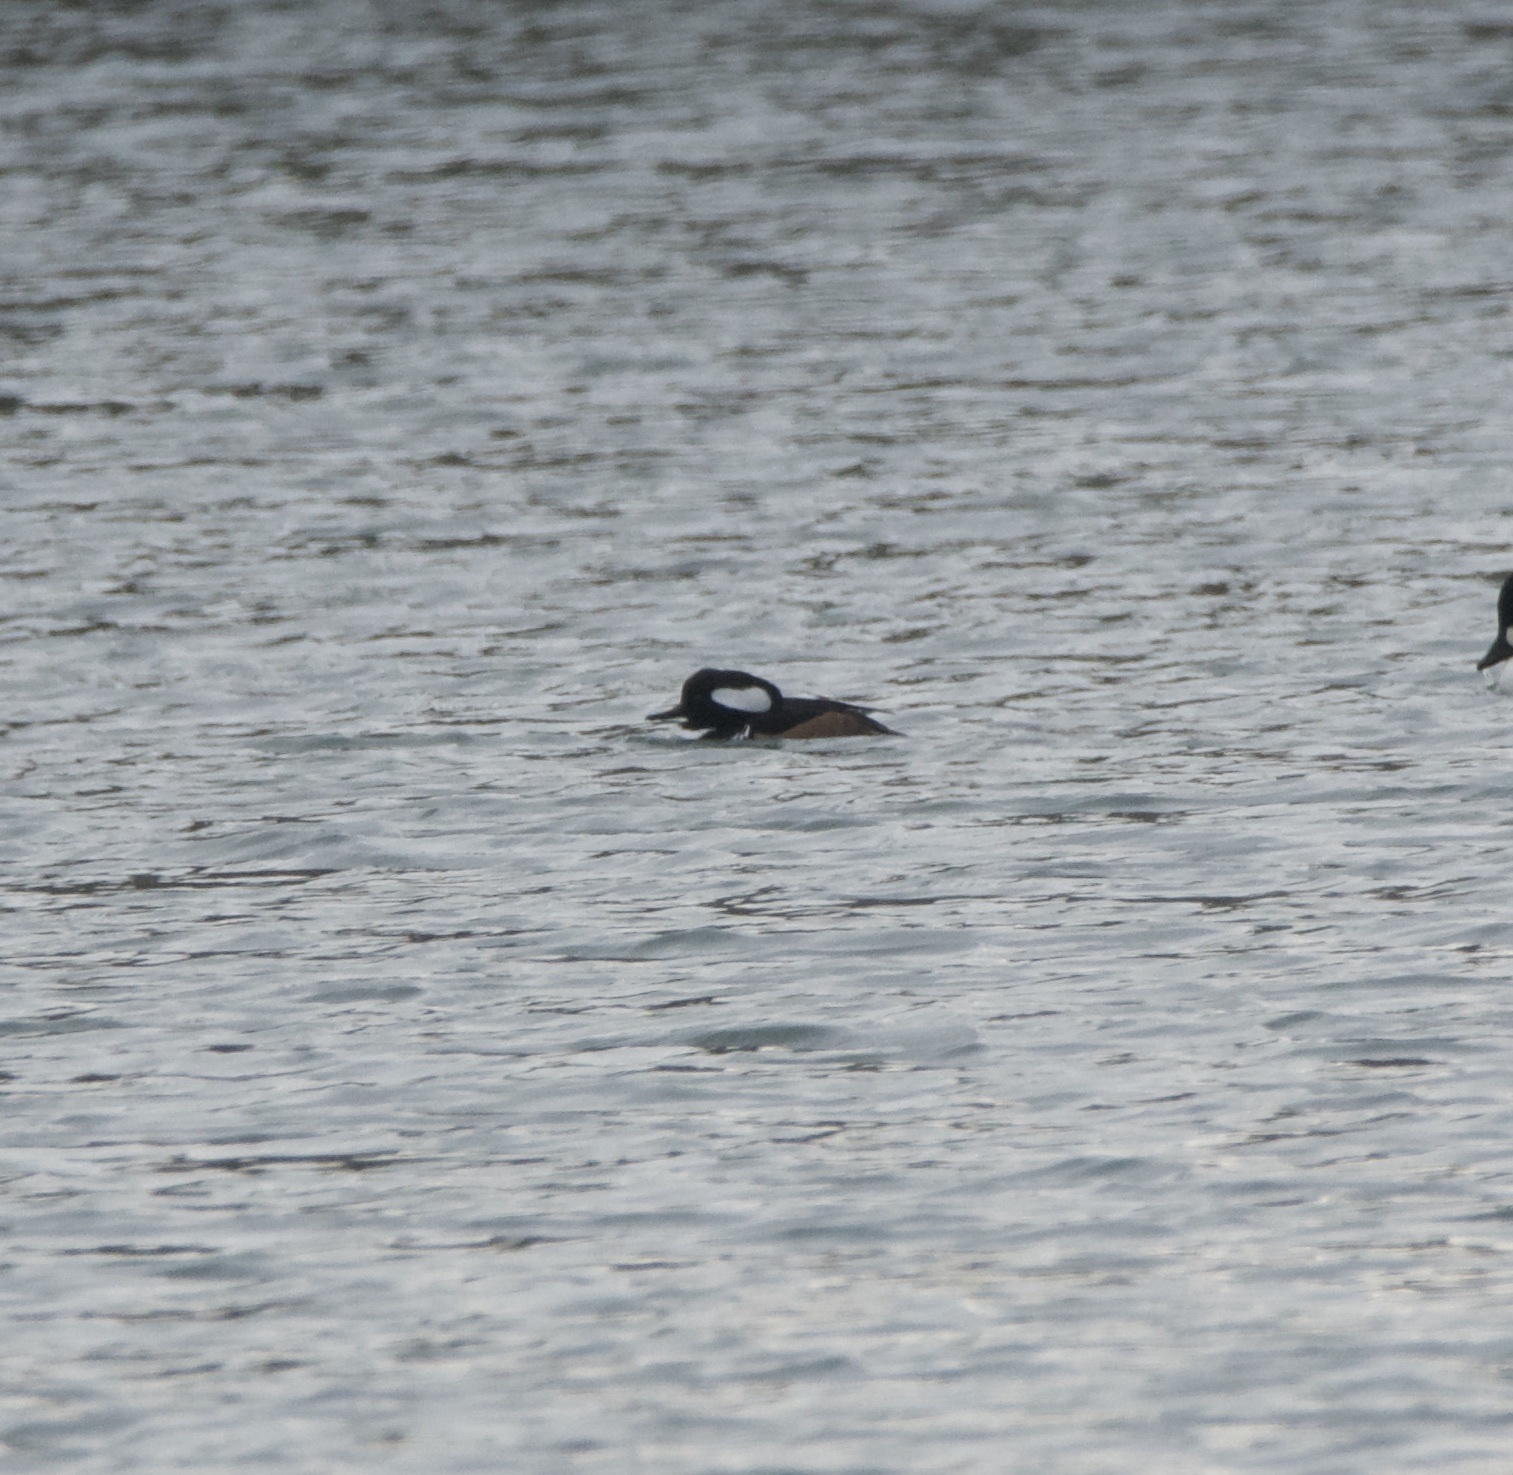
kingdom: Animalia
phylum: Chordata
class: Aves
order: Anseriformes
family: Anatidae
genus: Lophodytes
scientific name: Lophodytes cucullatus
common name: Hooded merganser
